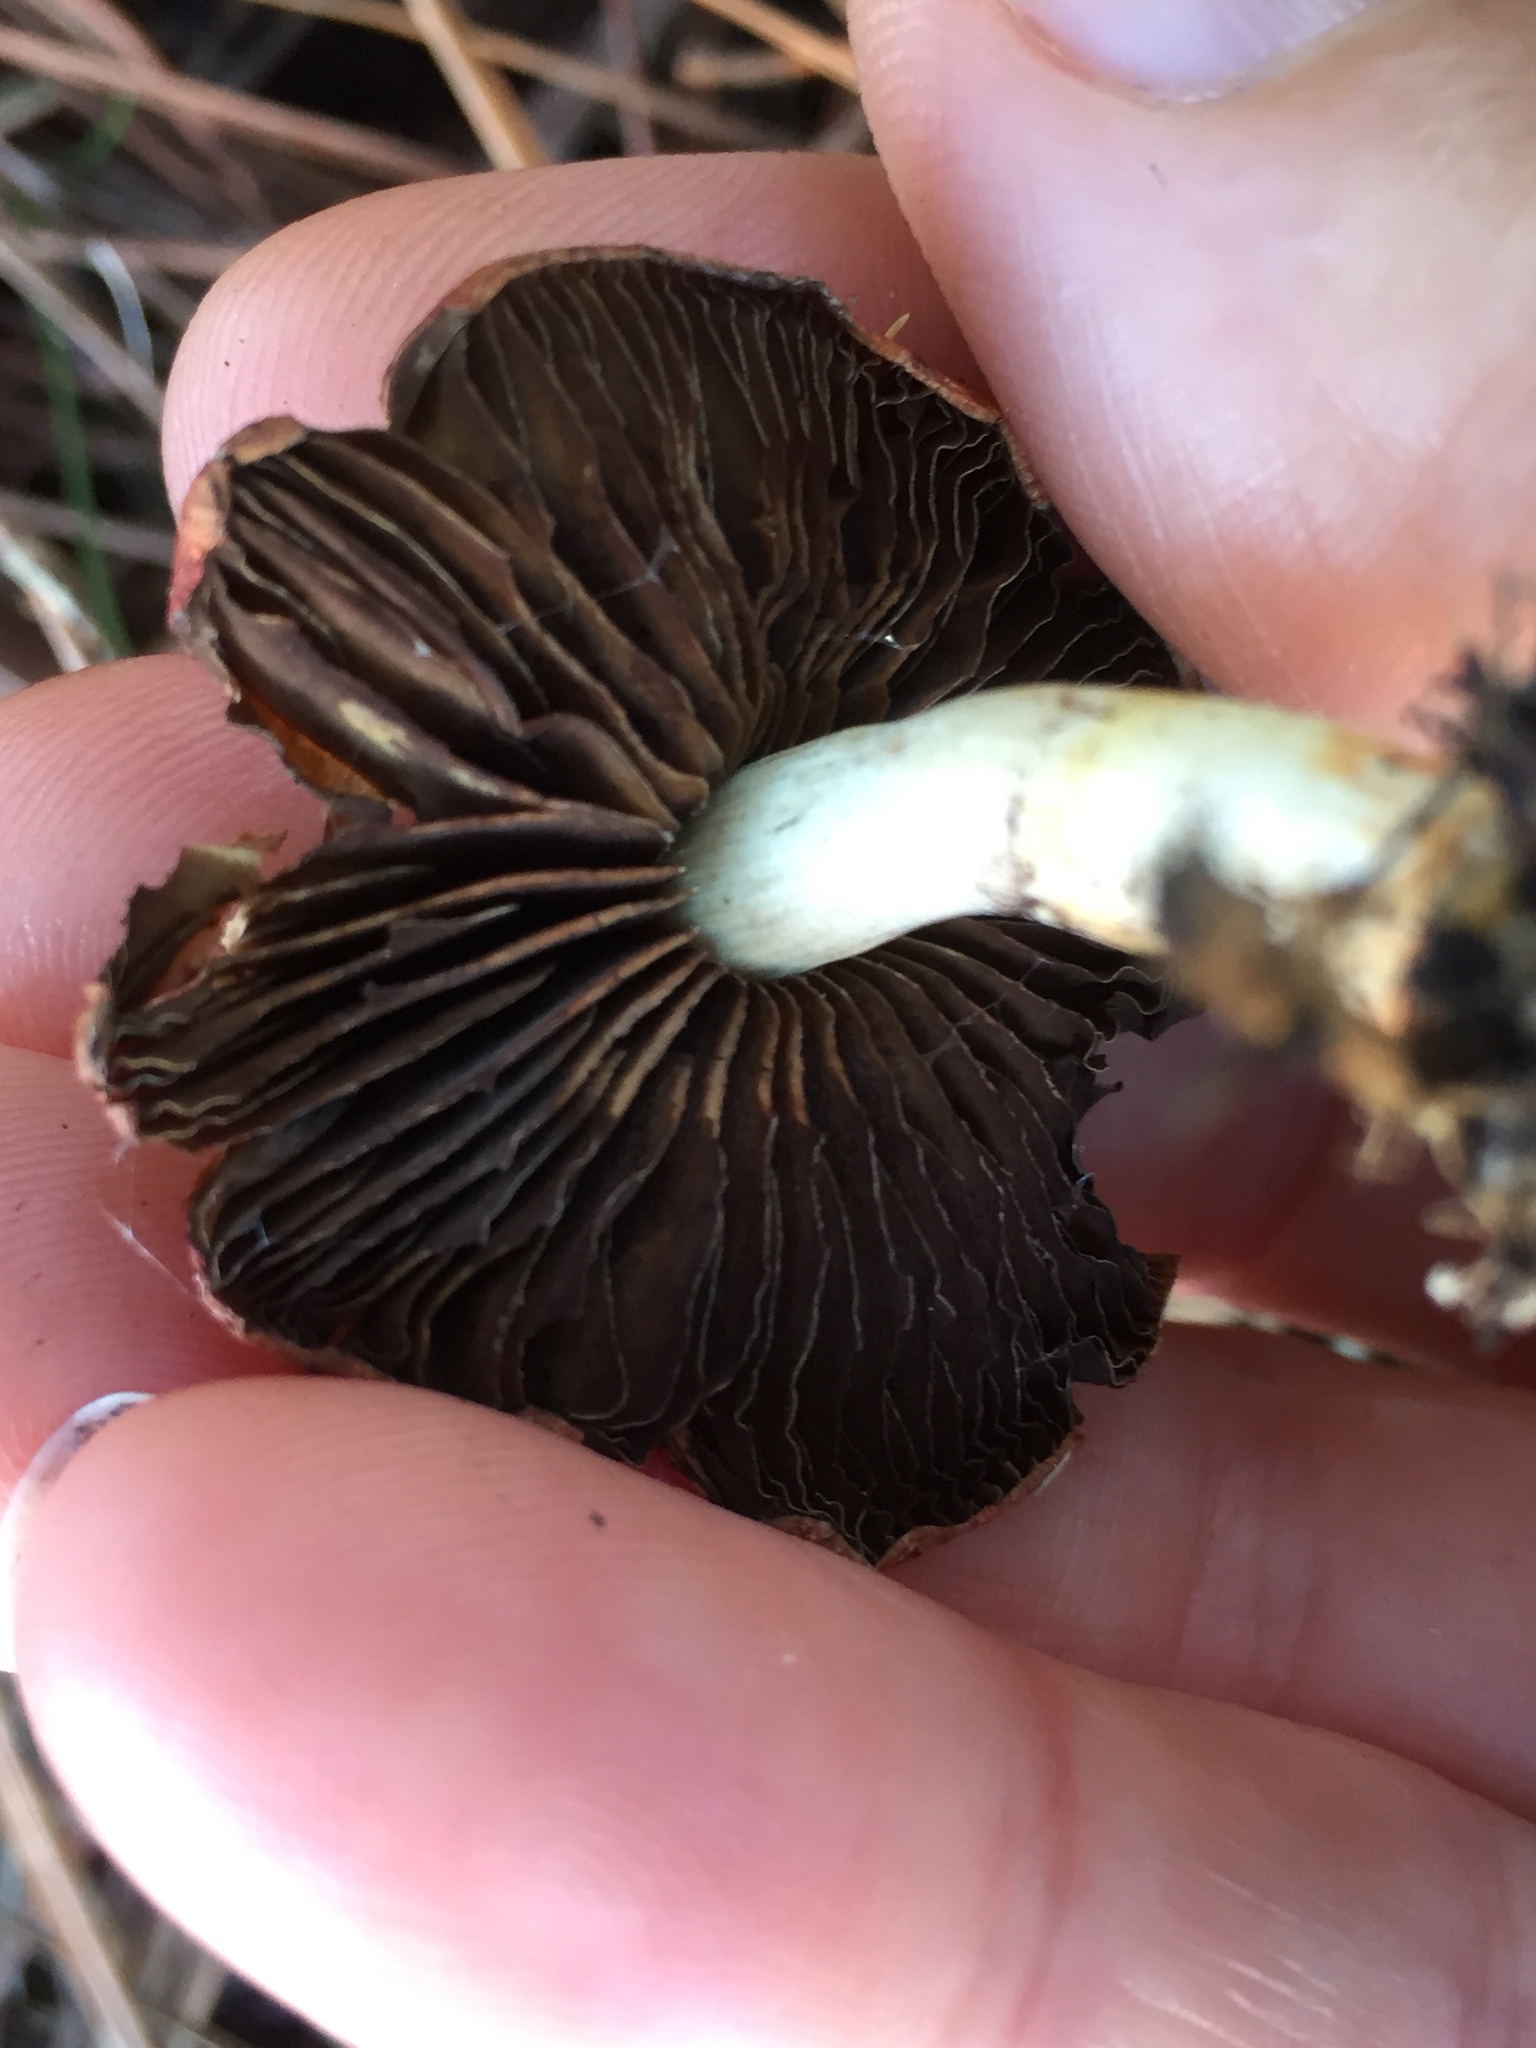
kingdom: Fungi
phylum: Basidiomycota
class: Agaricomycetes
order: Agaricales
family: Strophariaceae
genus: Leratiomyces
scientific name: Leratiomyces ceres
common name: Redlead roundhead
